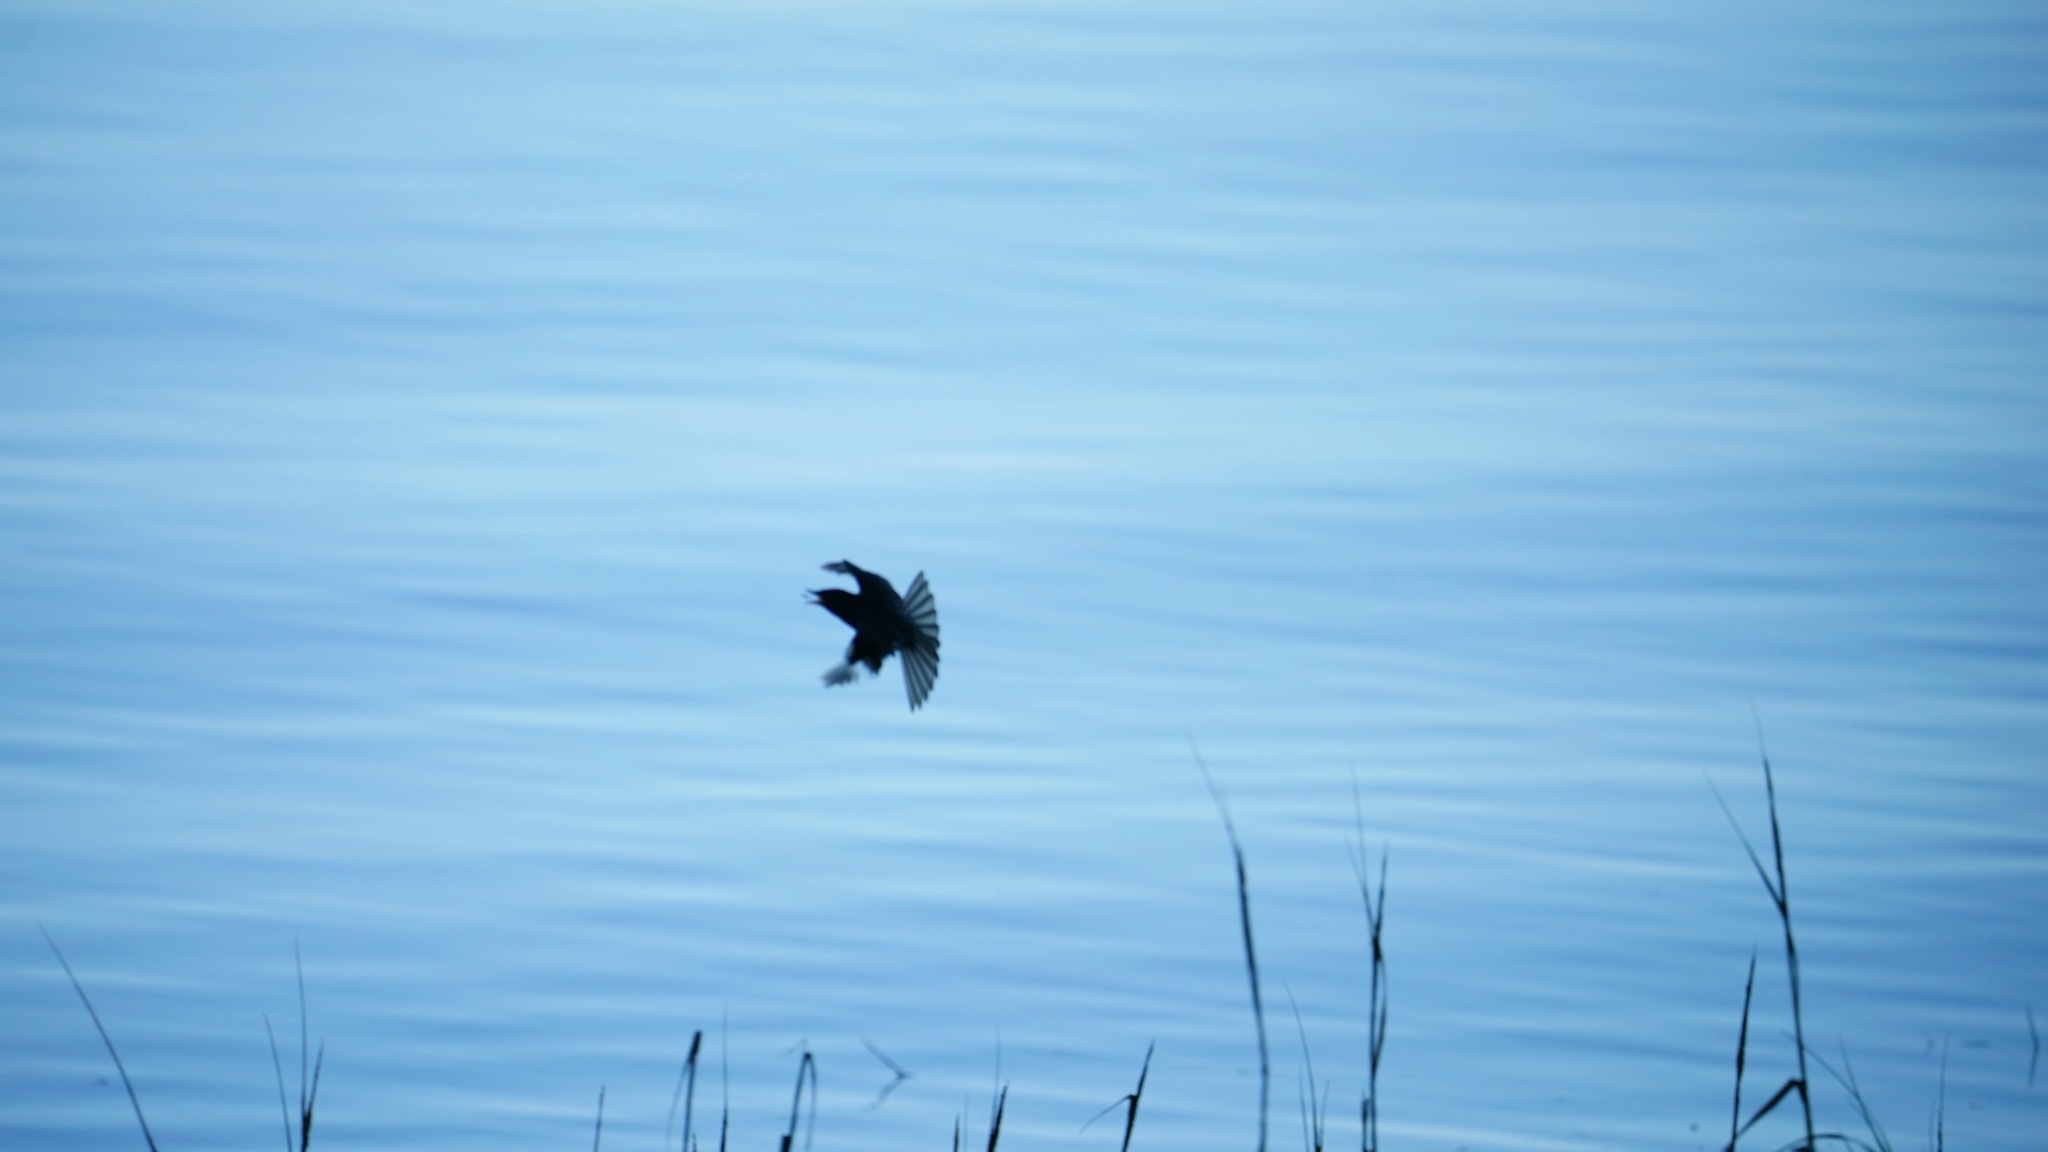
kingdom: Animalia
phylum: Chordata
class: Aves
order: Passeriformes
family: Tyrannidae
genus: Sayornis
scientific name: Sayornis nigricans
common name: Black phoebe
